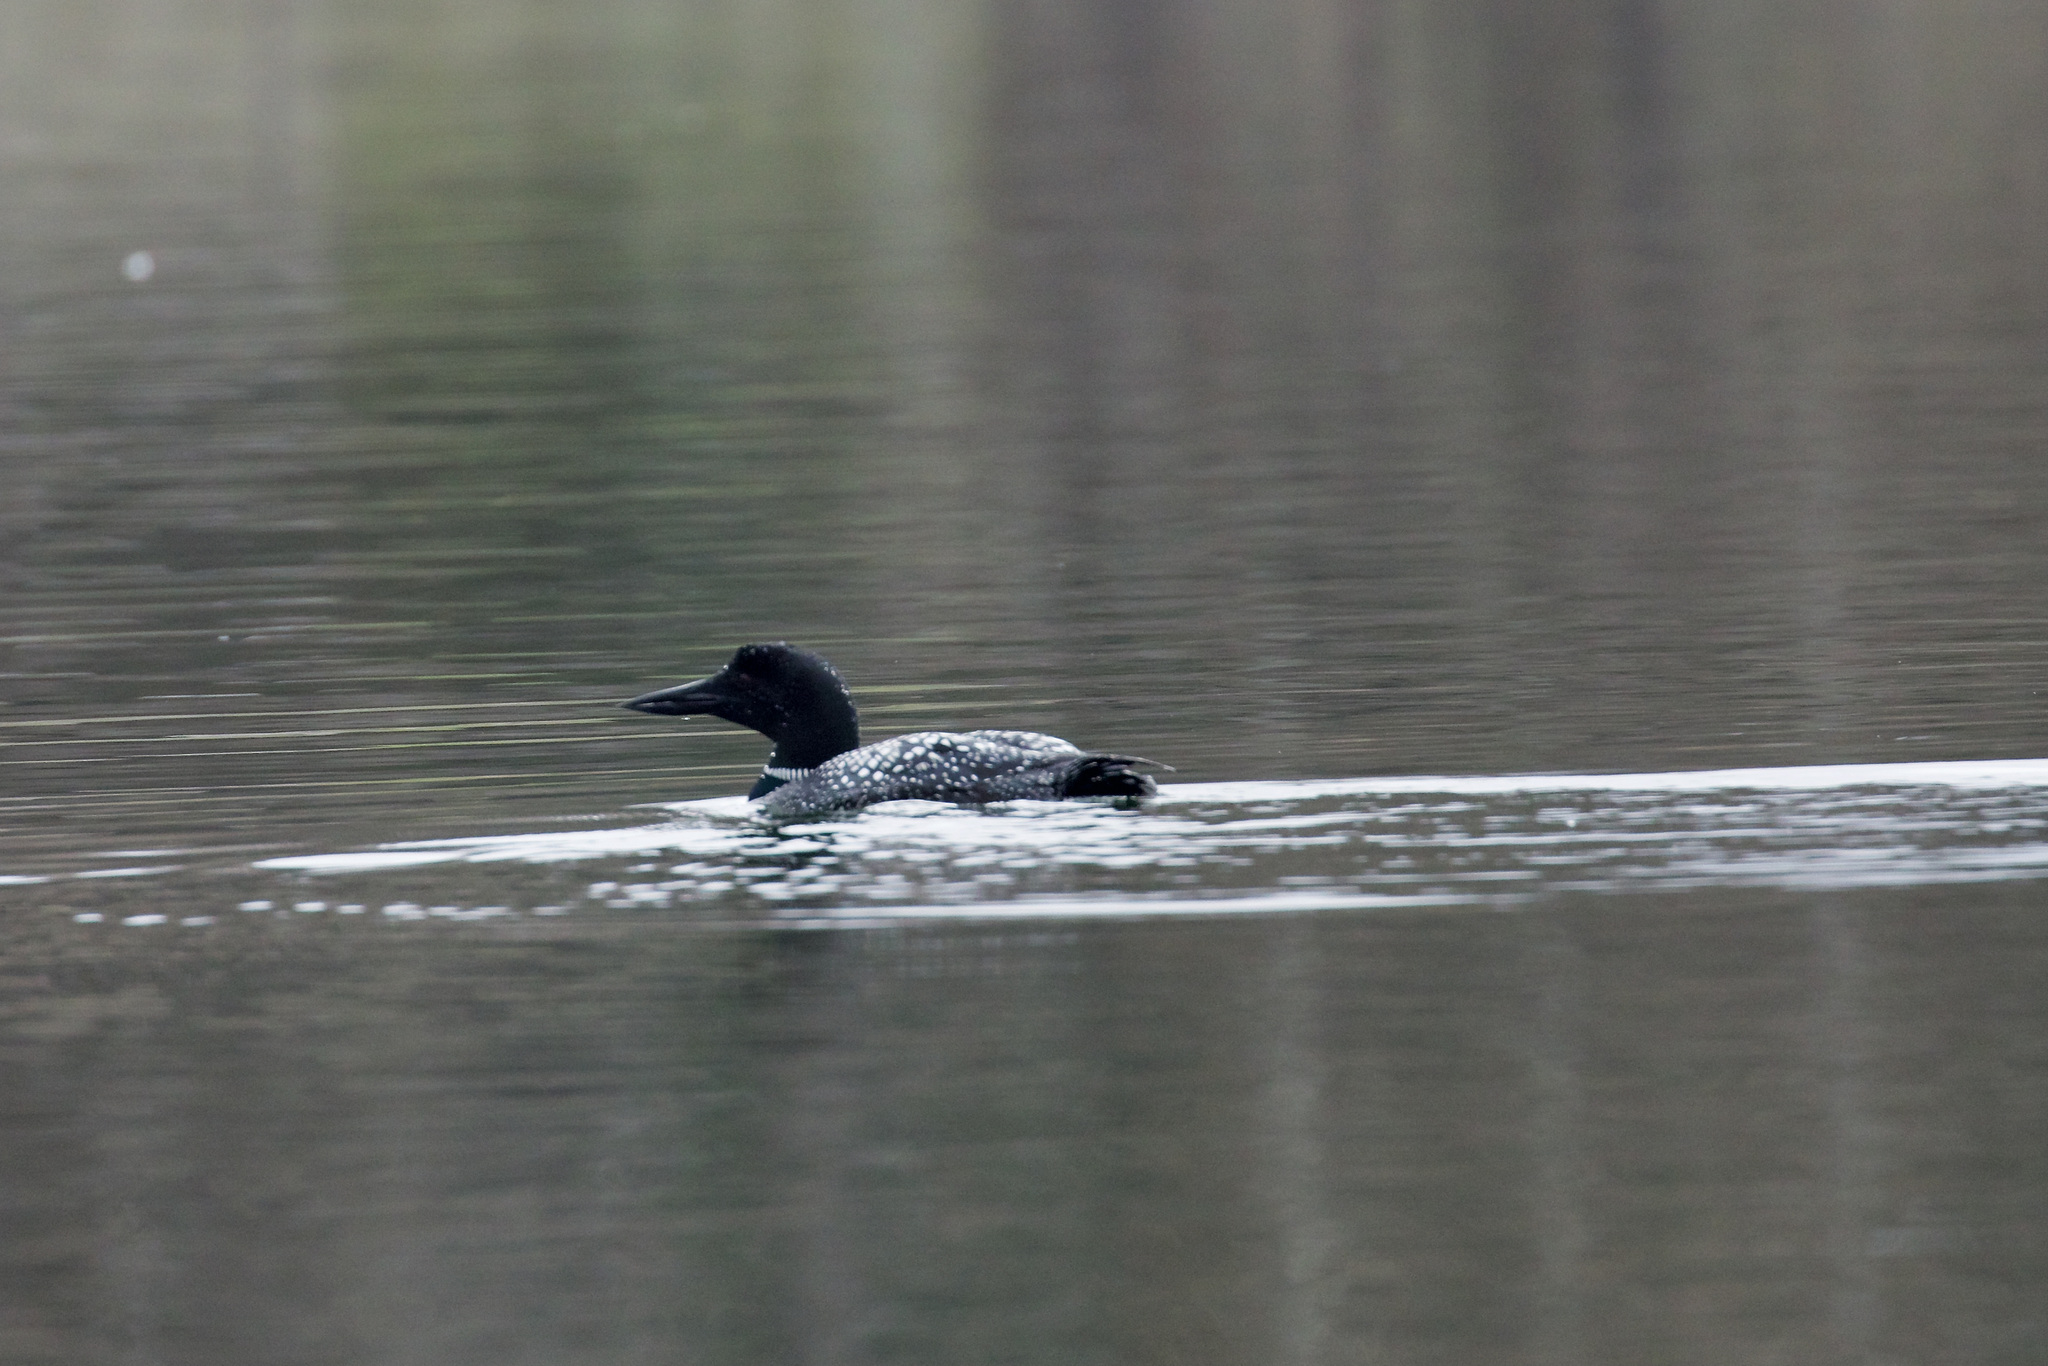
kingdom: Animalia
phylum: Chordata
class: Aves
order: Gaviiformes
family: Gaviidae
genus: Gavia
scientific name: Gavia immer
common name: Common loon
